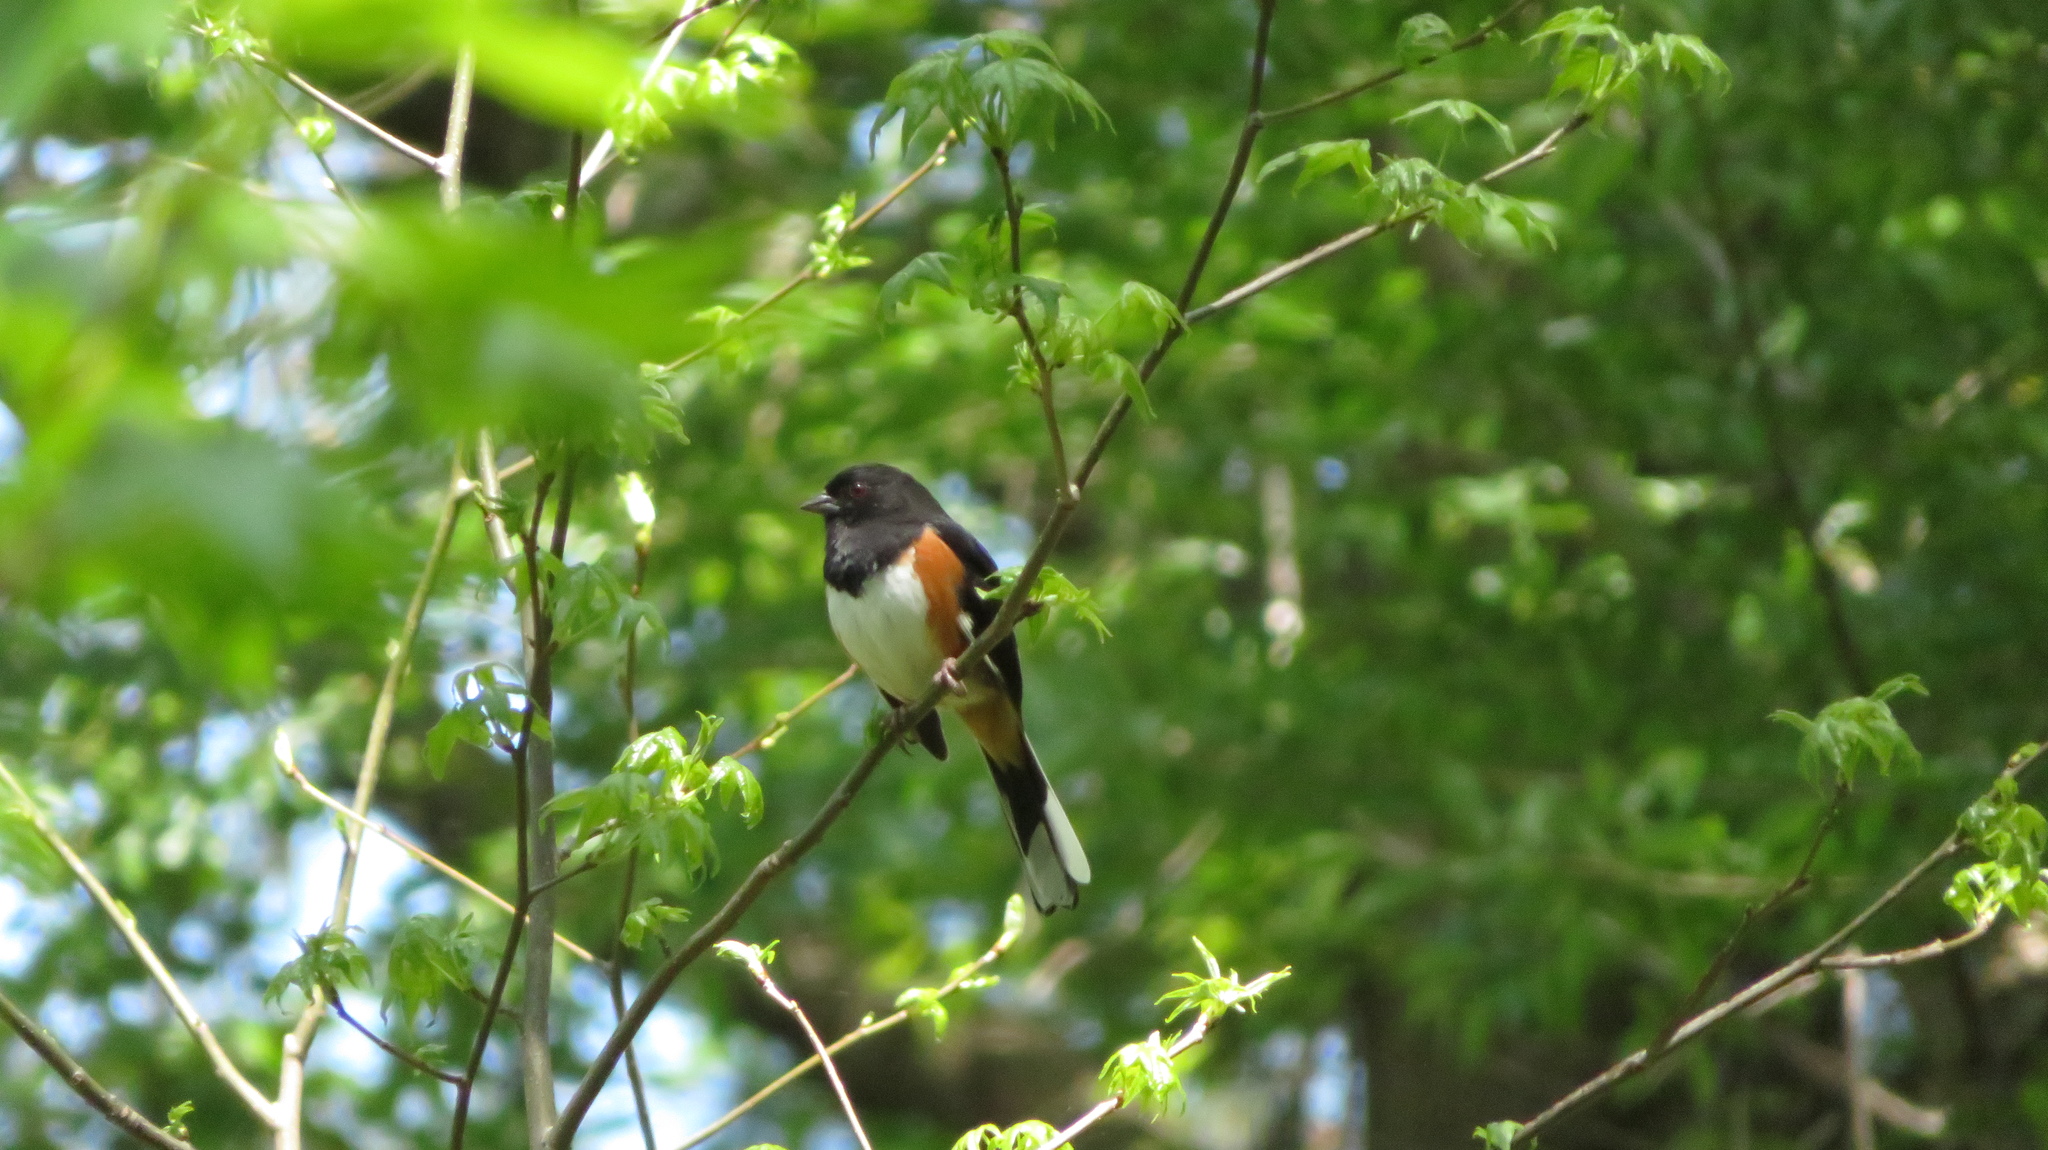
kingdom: Animalia
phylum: Chordata
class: Aves
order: Passeriformes
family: Passerellidae
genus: Pipilo
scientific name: Pipilo erythrophthalmus
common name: Eastern towhee
